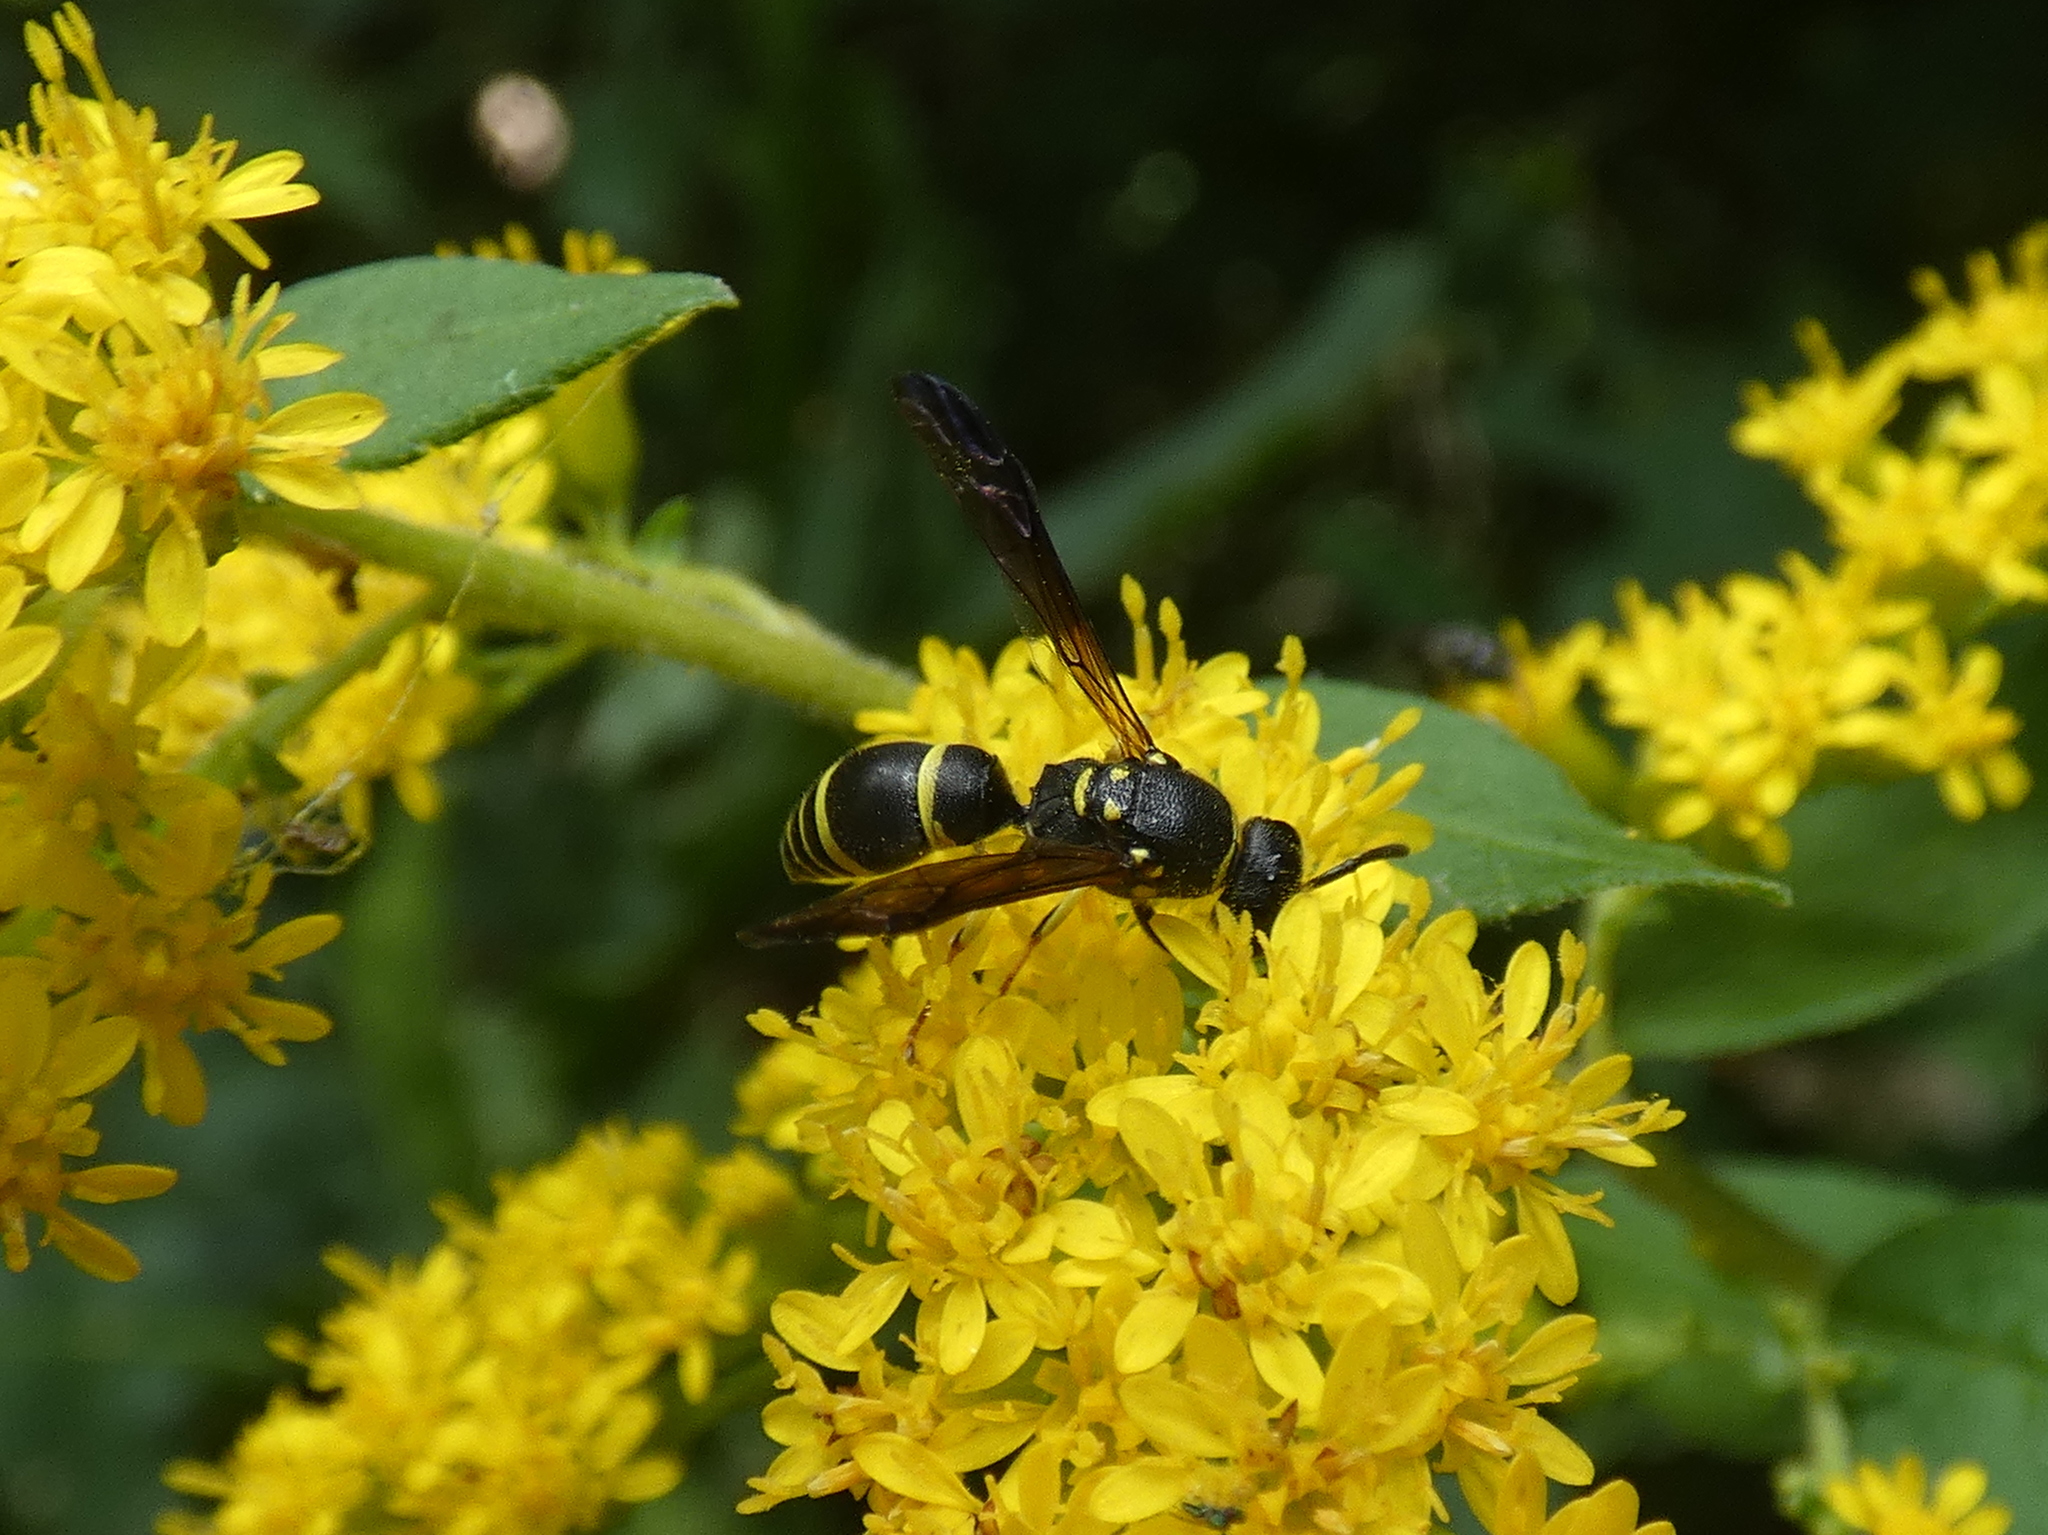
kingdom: Animalia
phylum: Arthropoda
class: Insecta
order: Hymenoptera
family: Vespidae
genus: Ancistrocerus
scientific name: Ancistrocerus adiabatus
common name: Bramble mason wasp
